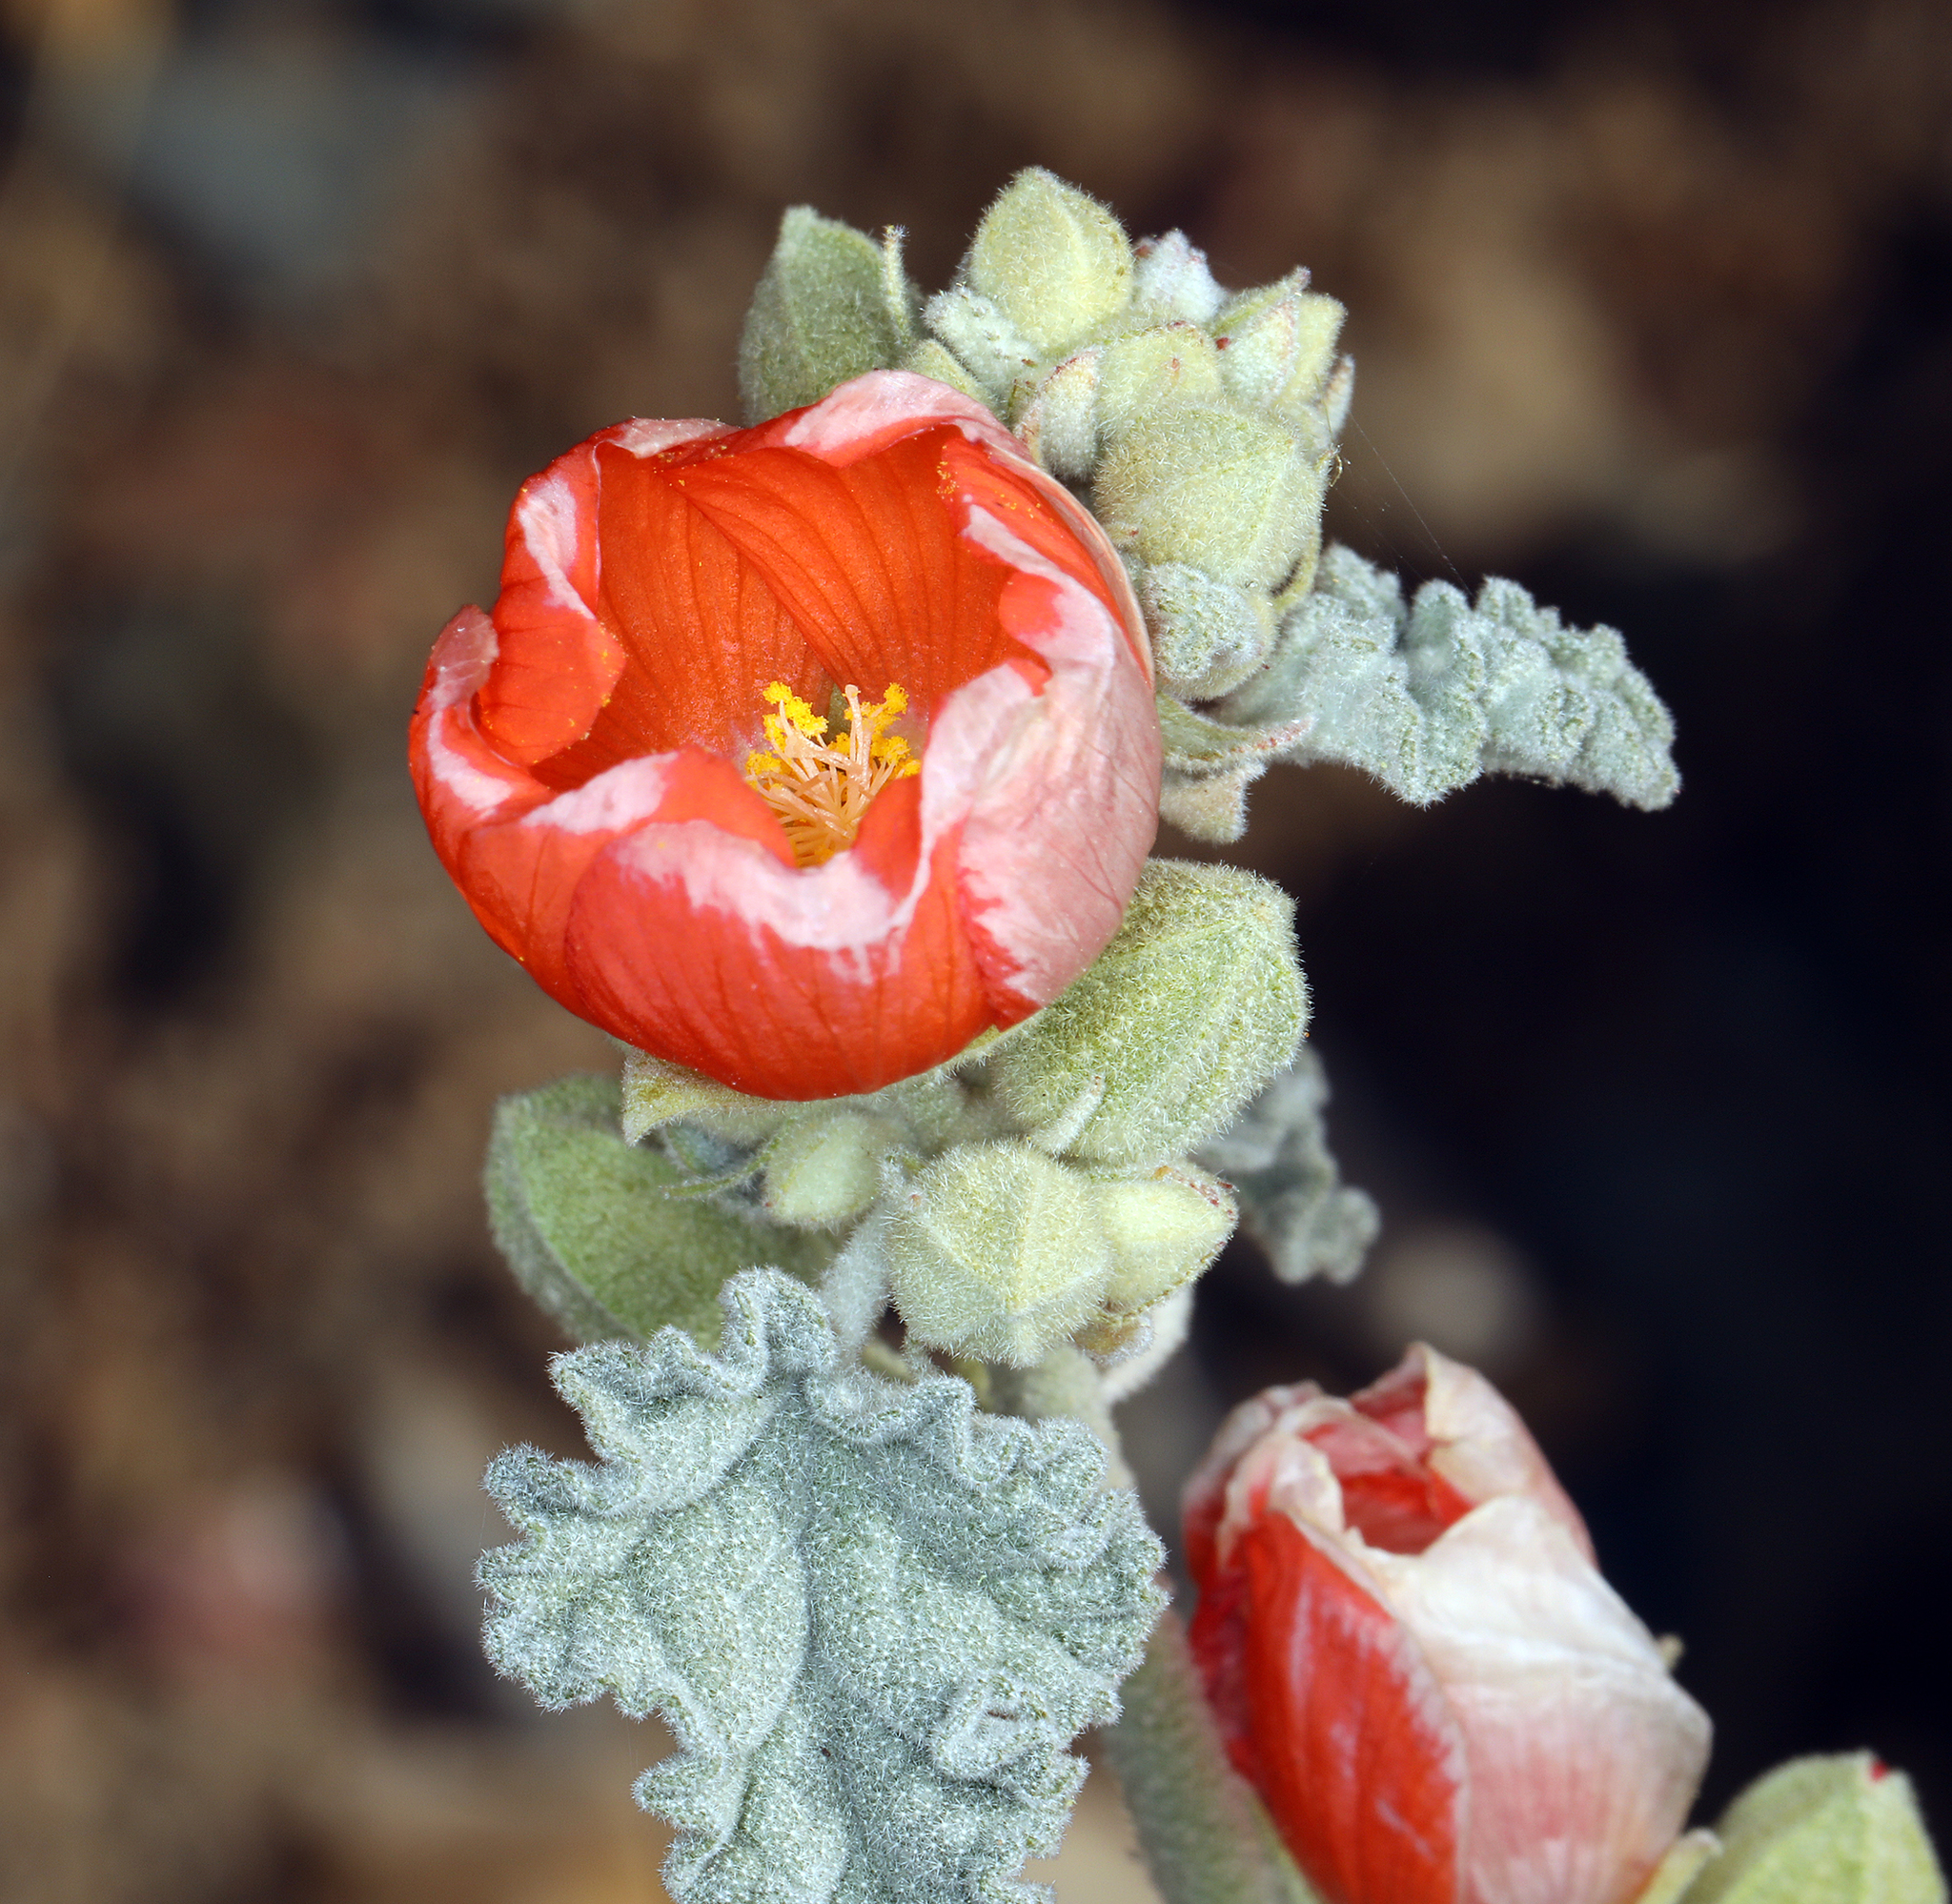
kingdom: Plantae
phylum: Tracheophyta
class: Magnoliopsida
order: Malvales
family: Malvaceae
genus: Sphaeralcea
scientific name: Sphaeralcea ambigua
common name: Apricot globe-mallow
